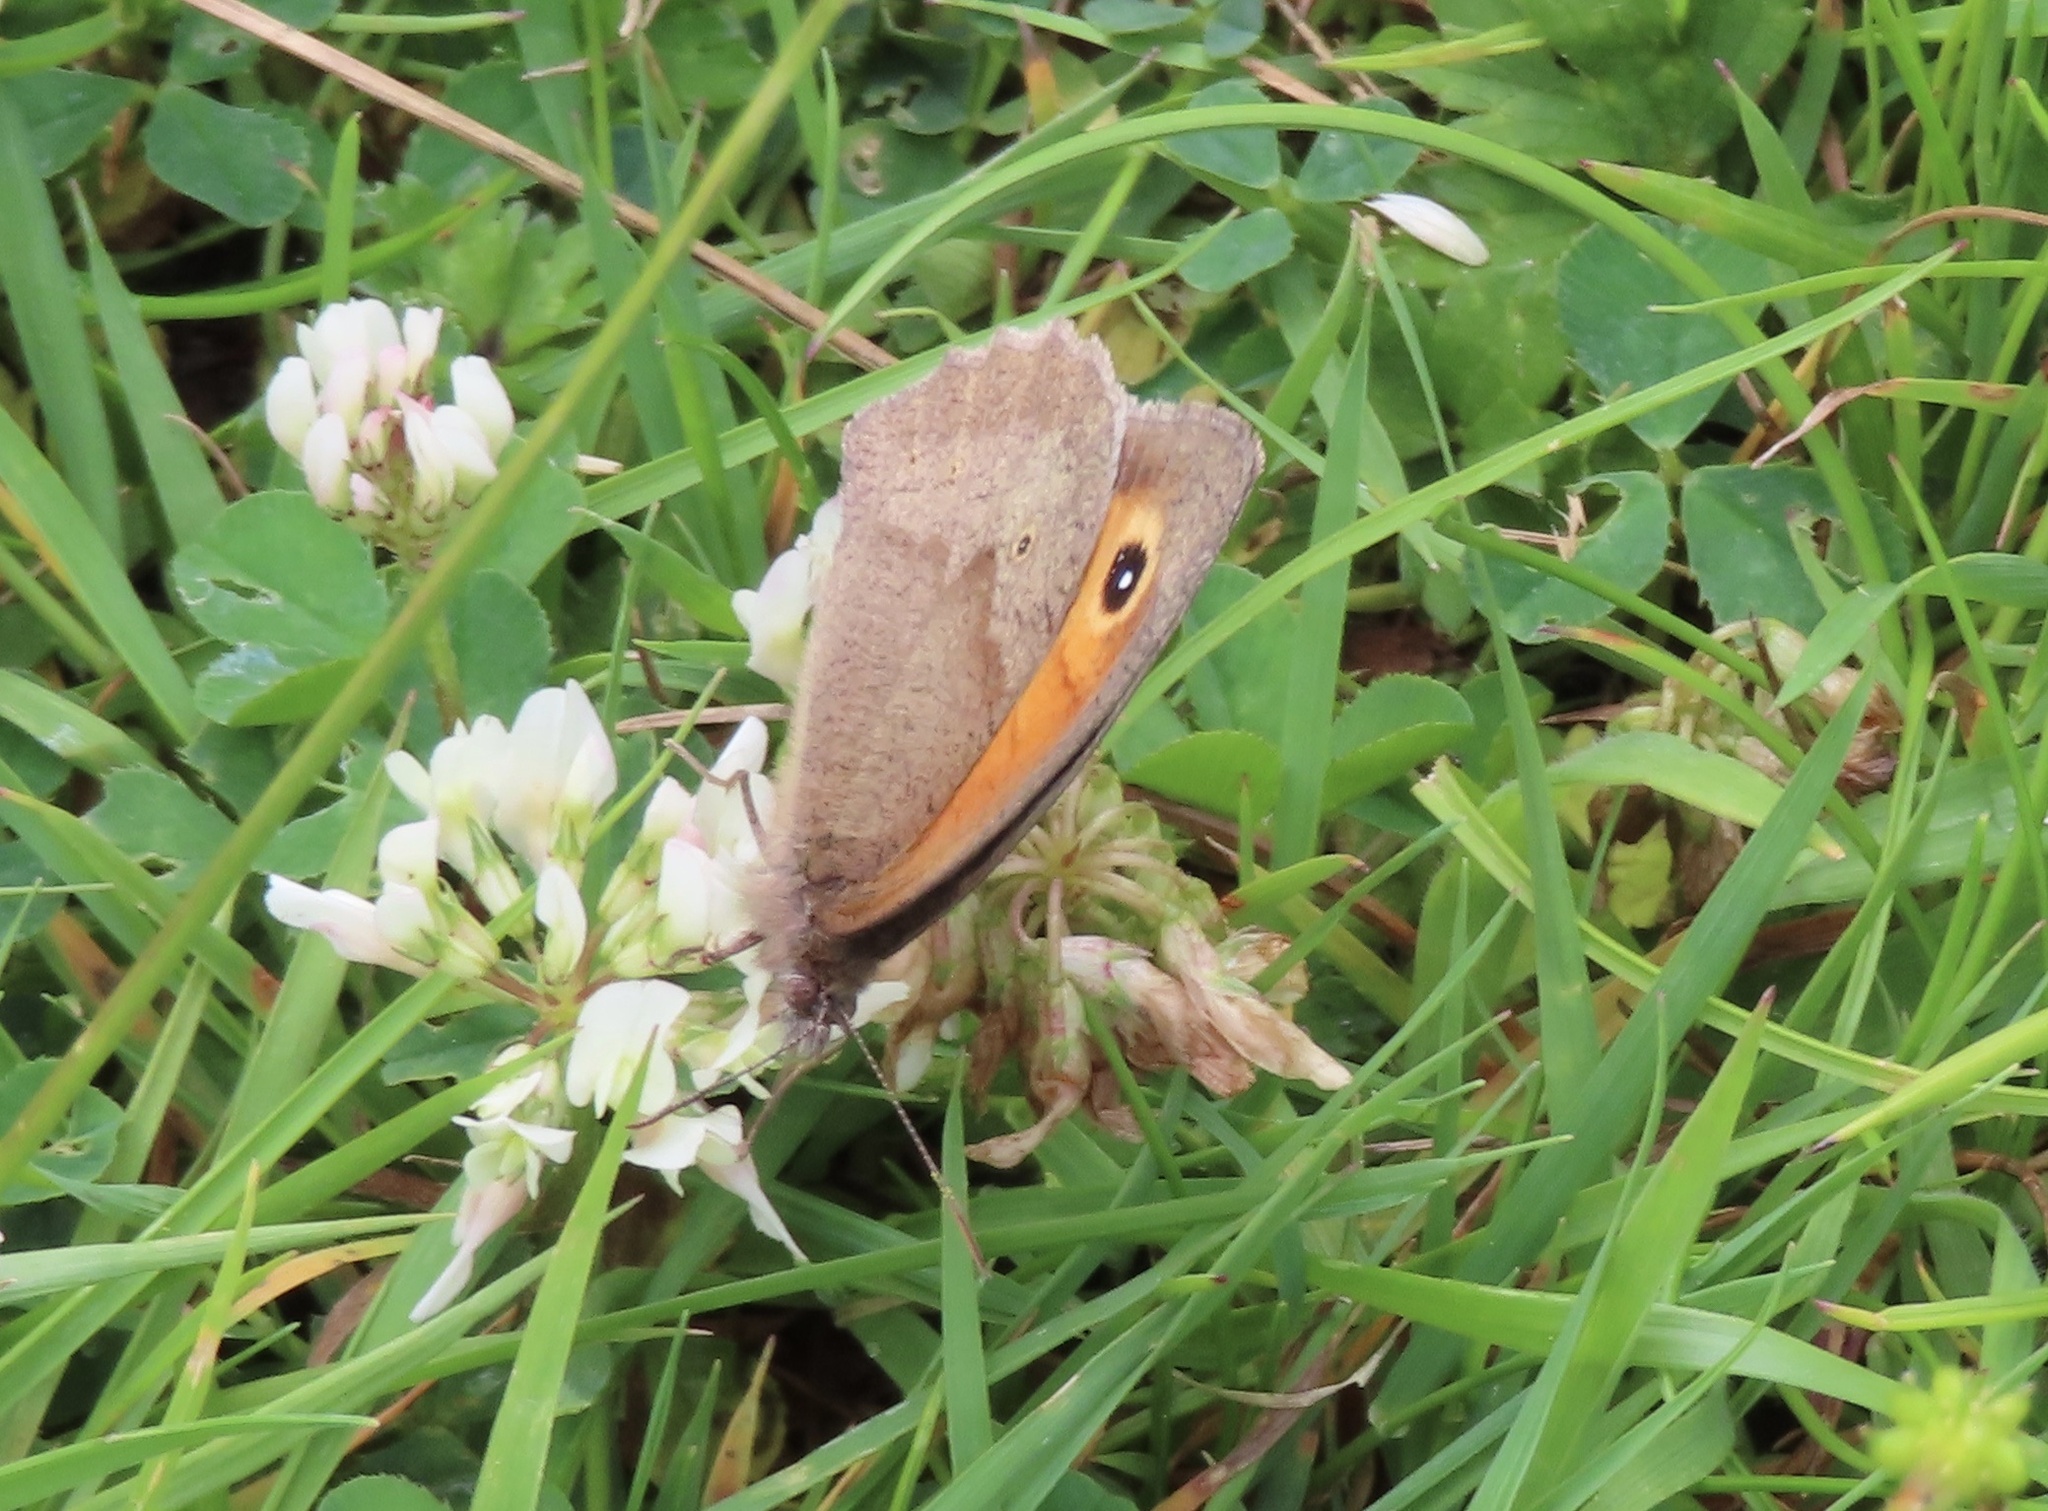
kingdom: Animalia
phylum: Arthropoda
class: Insecta
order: Lepidoptera
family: Nymphalidae
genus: Maniola
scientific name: Maniola jurtina
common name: Meadow brown
